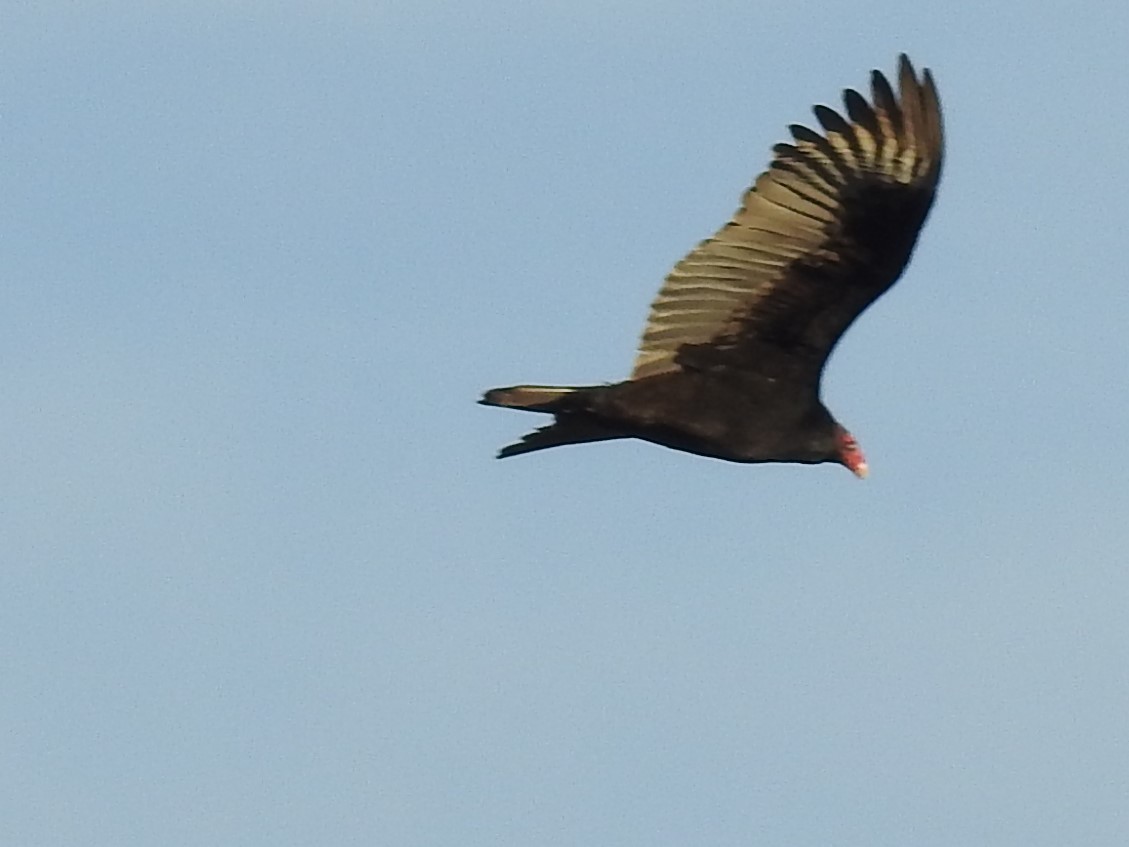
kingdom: Animalia
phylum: Chordata
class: Aves
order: Accipitriformes
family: Cathartidae
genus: Cathartes
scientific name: Cathartes aura
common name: Turkey vulture
